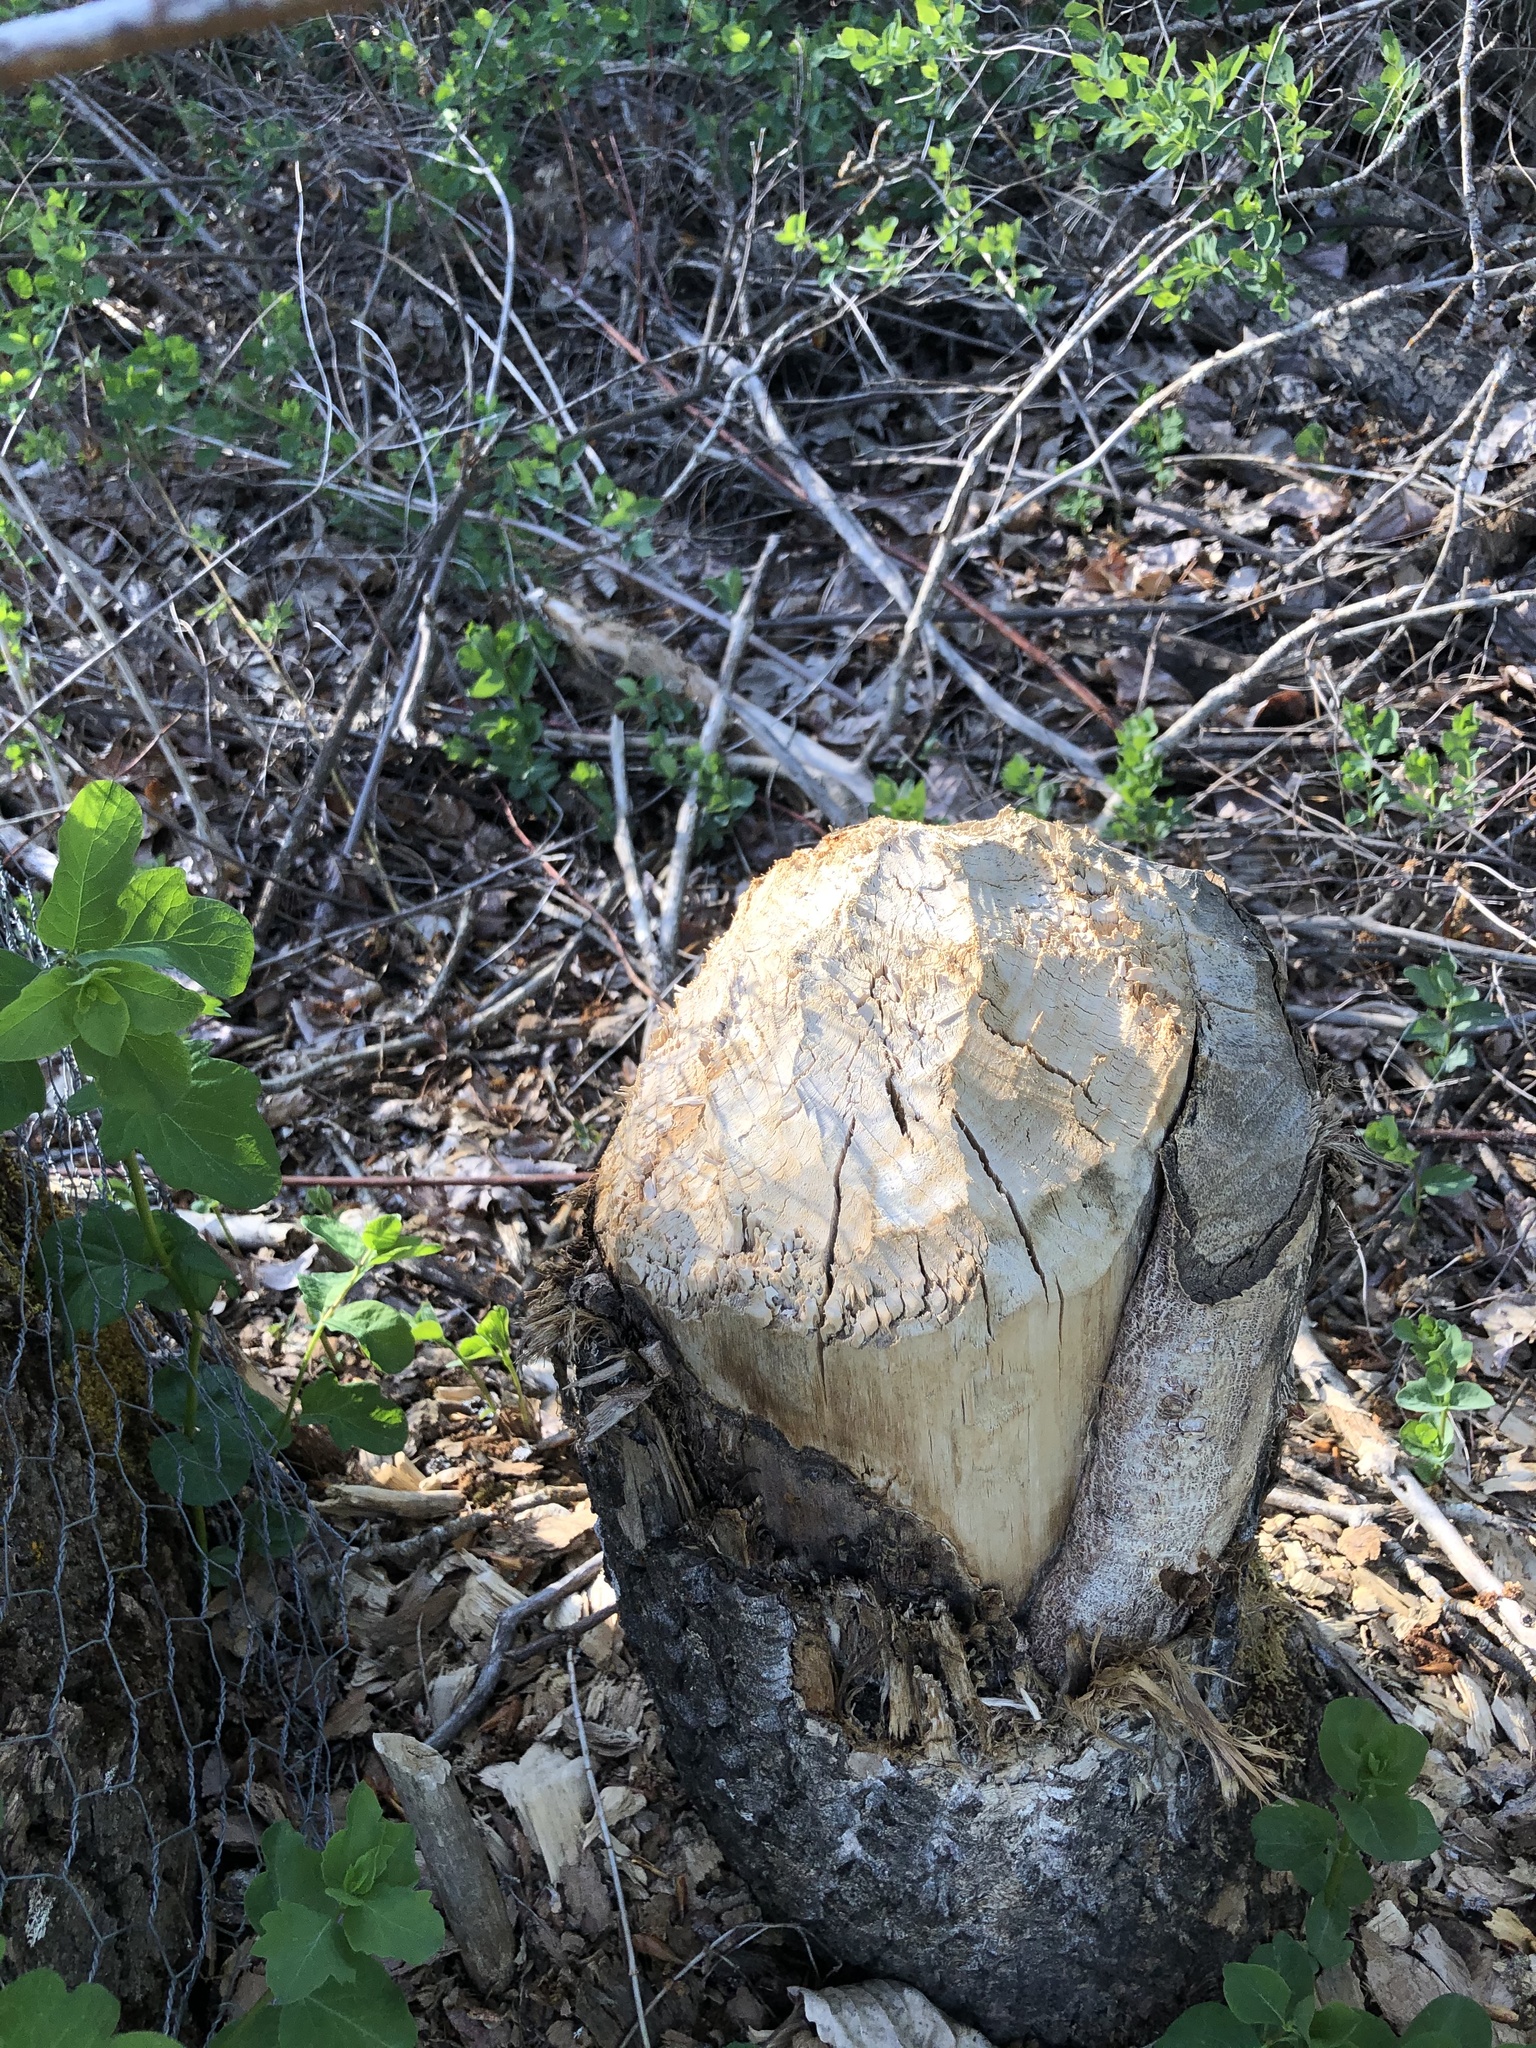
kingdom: Animalia
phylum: Chordata
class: Mammalia
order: Rodentia
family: Castoridae
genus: Castor
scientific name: Castor canadensis
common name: American beaver
